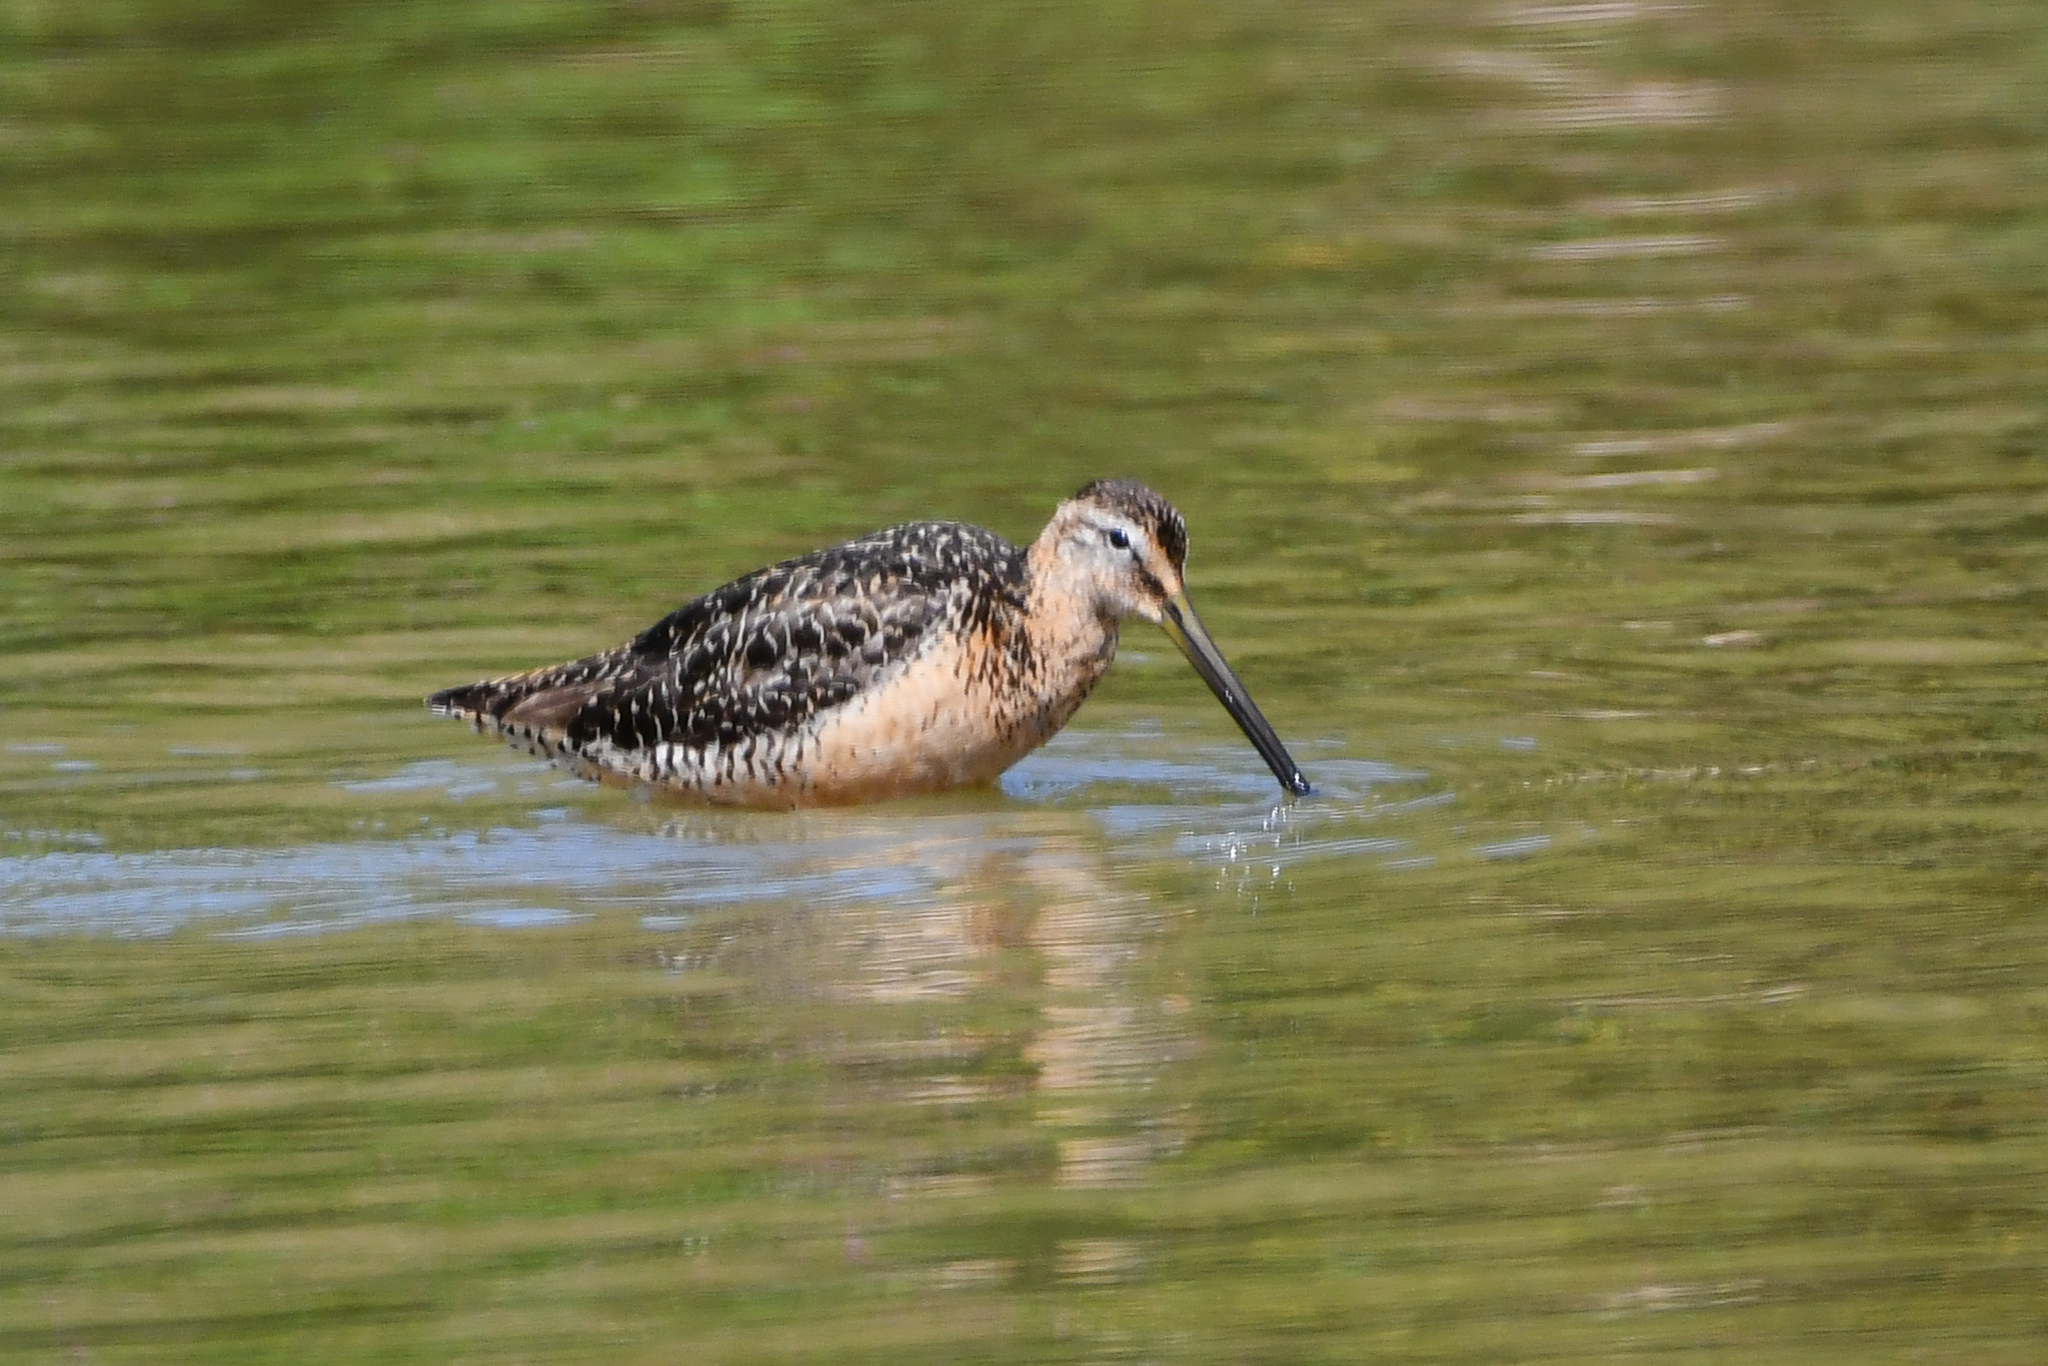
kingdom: Animalia
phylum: Chordata
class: Aves
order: Charadriiformes
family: Scolopacidae
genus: Limnodromus
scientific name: Limnodromus scolopaceus
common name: Long-billed dowitcher
